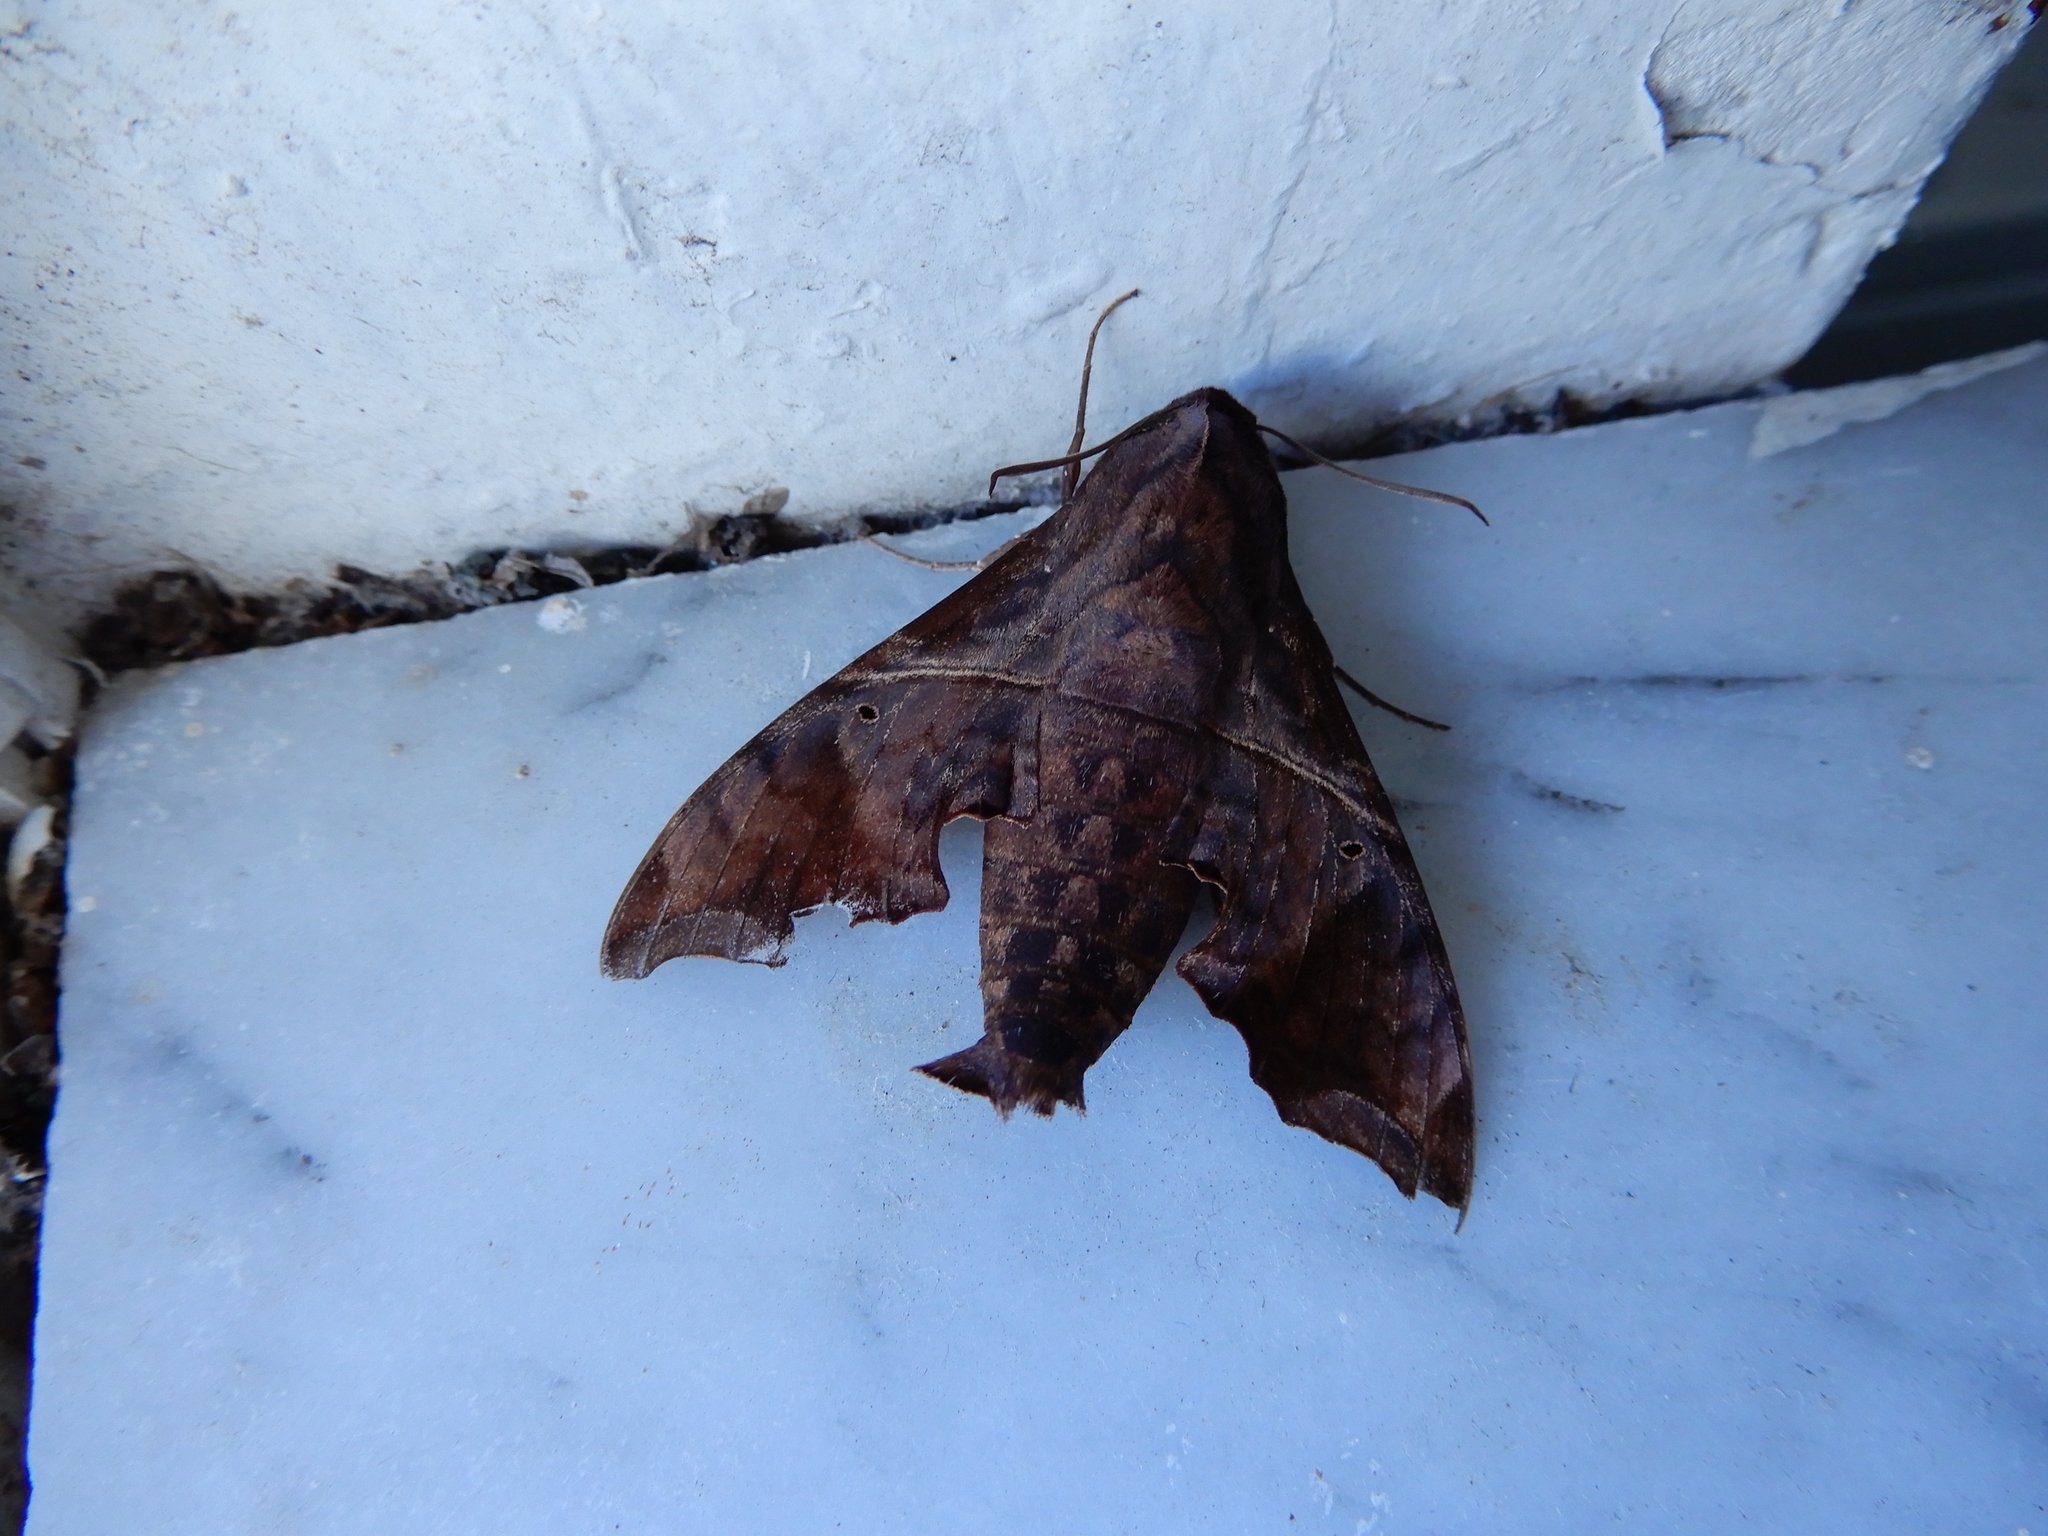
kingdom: Animalia
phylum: Arthropoda
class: Insecta
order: Lepidoptera
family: Sphingidae
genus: Enyo
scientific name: Enyo lugubris
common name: Mournful sphinx
